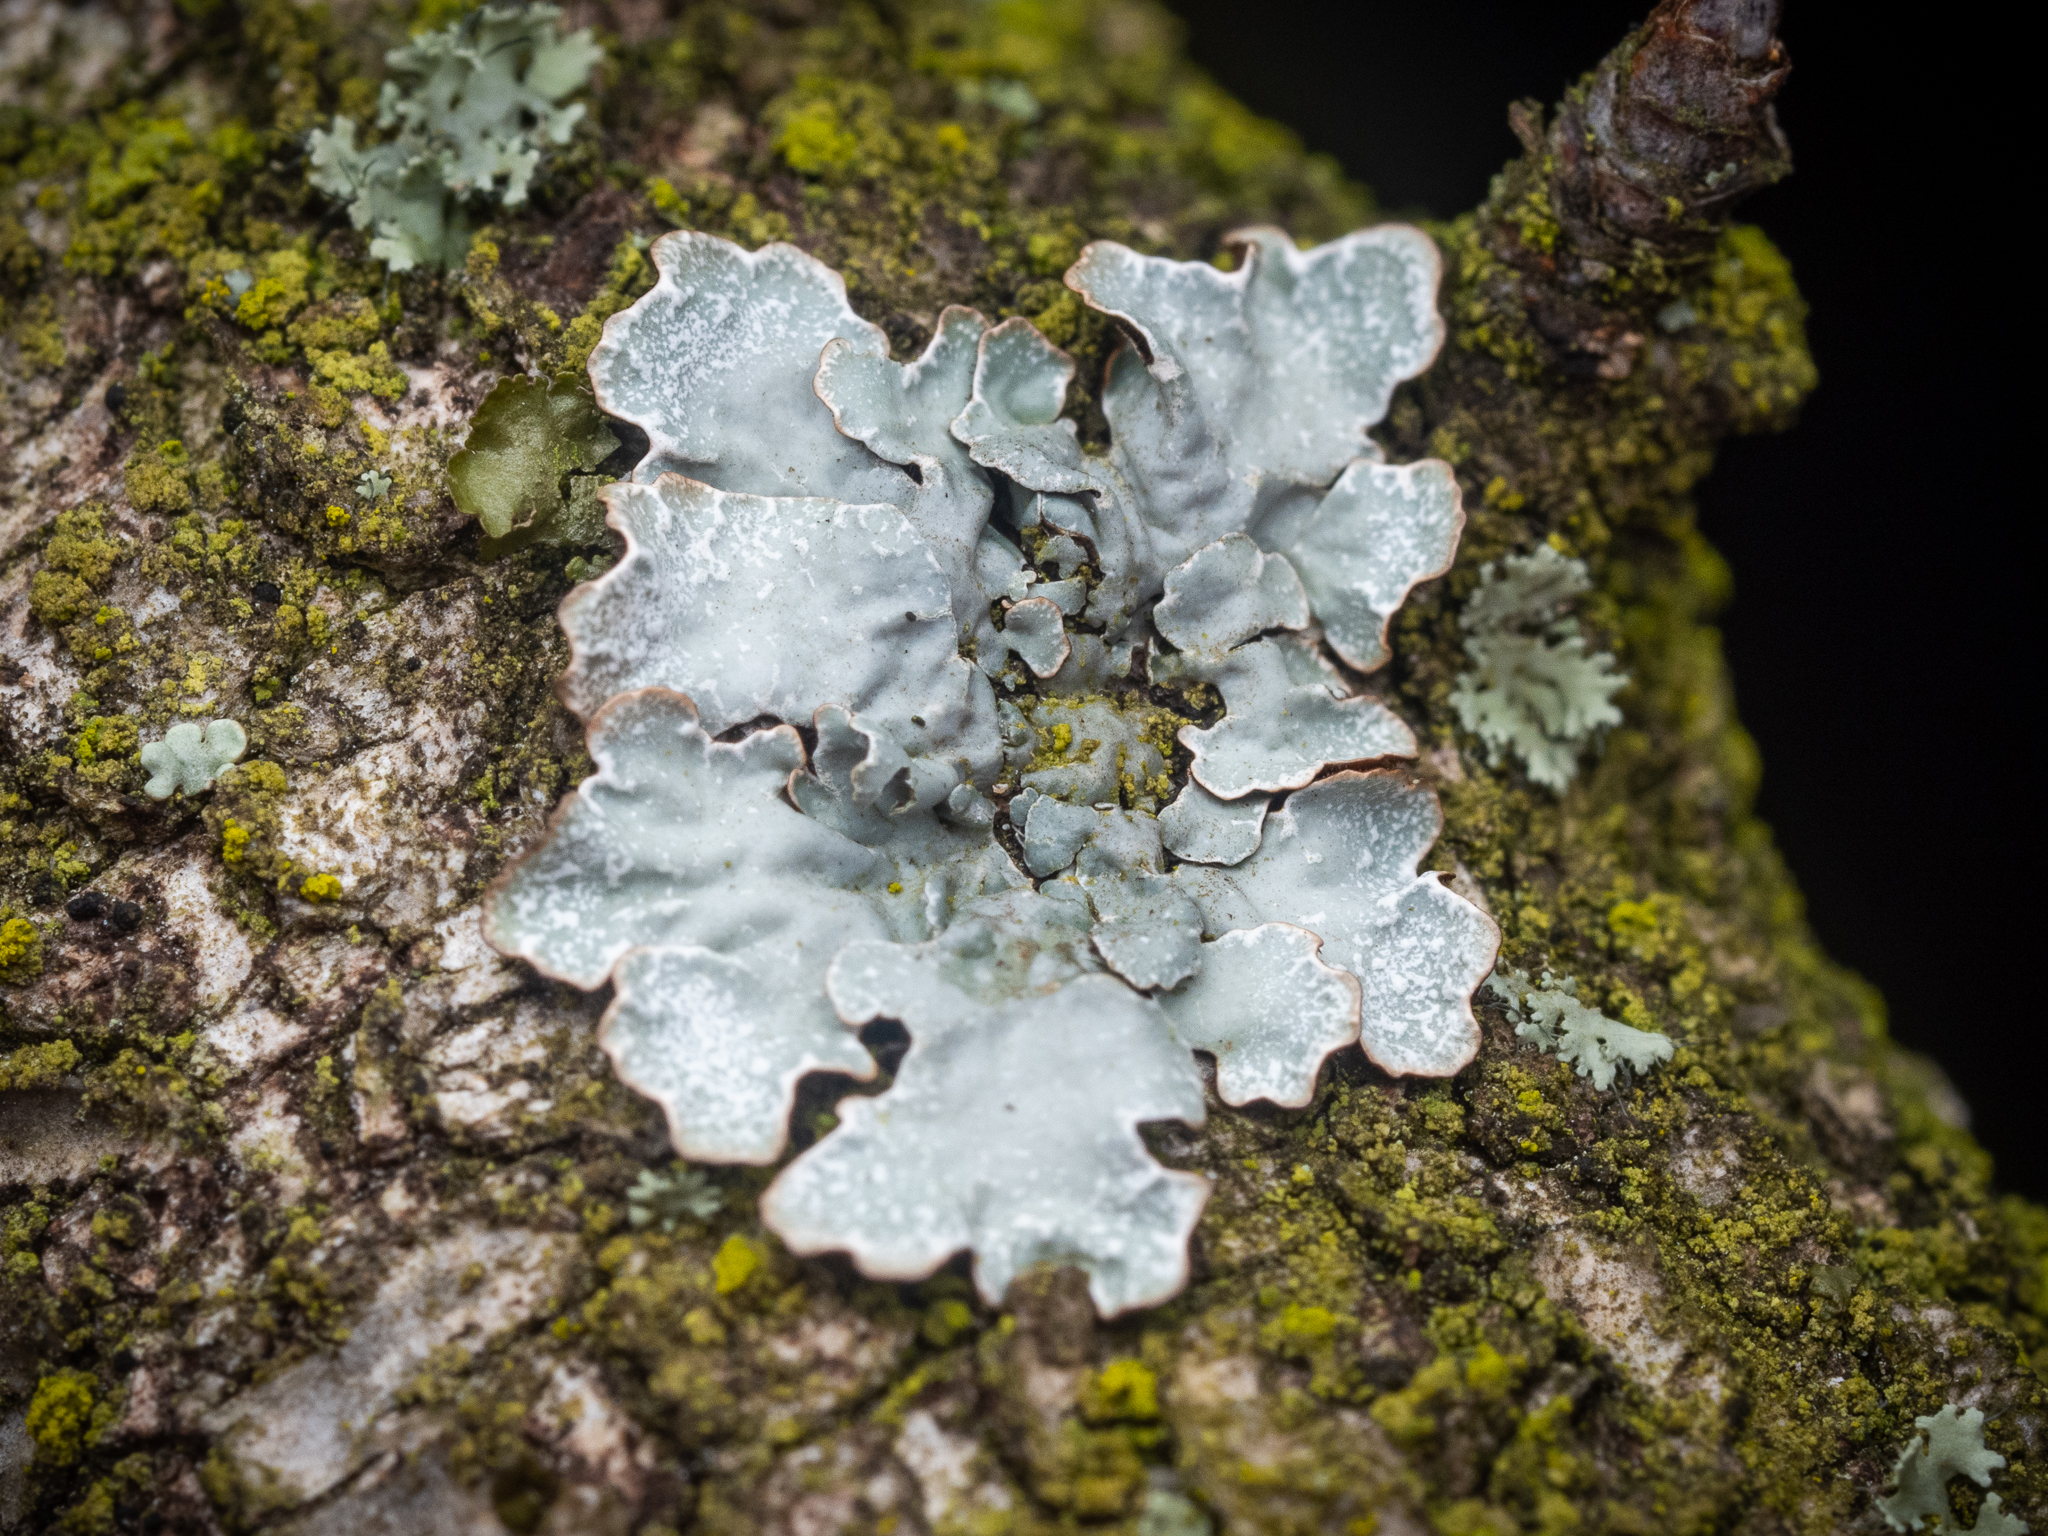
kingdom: Fungi
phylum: Ascomycota
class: Lecanoromycetes
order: Lecanorales
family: Parmeliaceae
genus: Parmelia
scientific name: Parmelia sulcata
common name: Netted shield lichen
